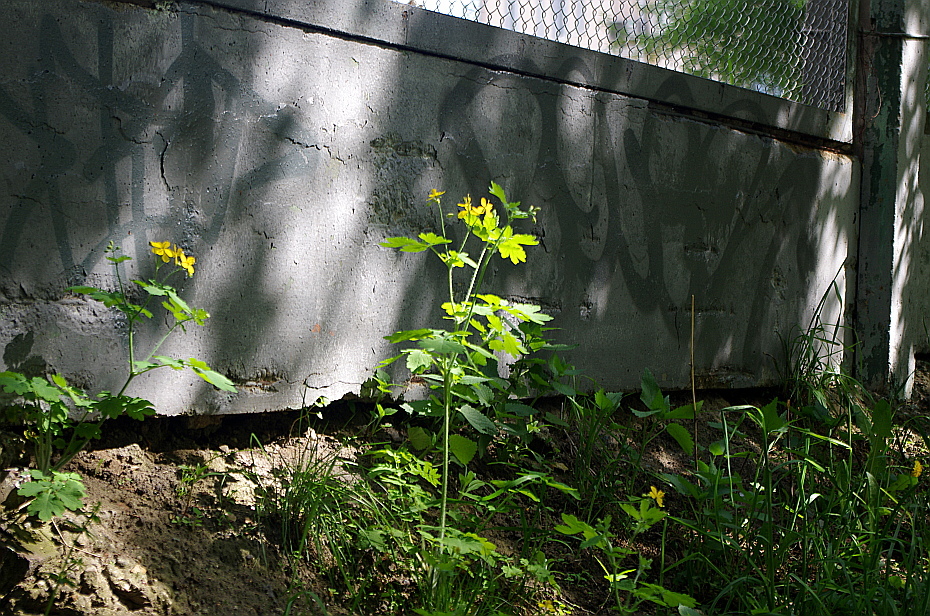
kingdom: Plantae
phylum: Tracheophyta
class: Magnoliopsida
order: Ranunculales
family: Papaveraceae
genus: Chelidonium
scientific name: Chelidonium majus
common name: Greater celandine
